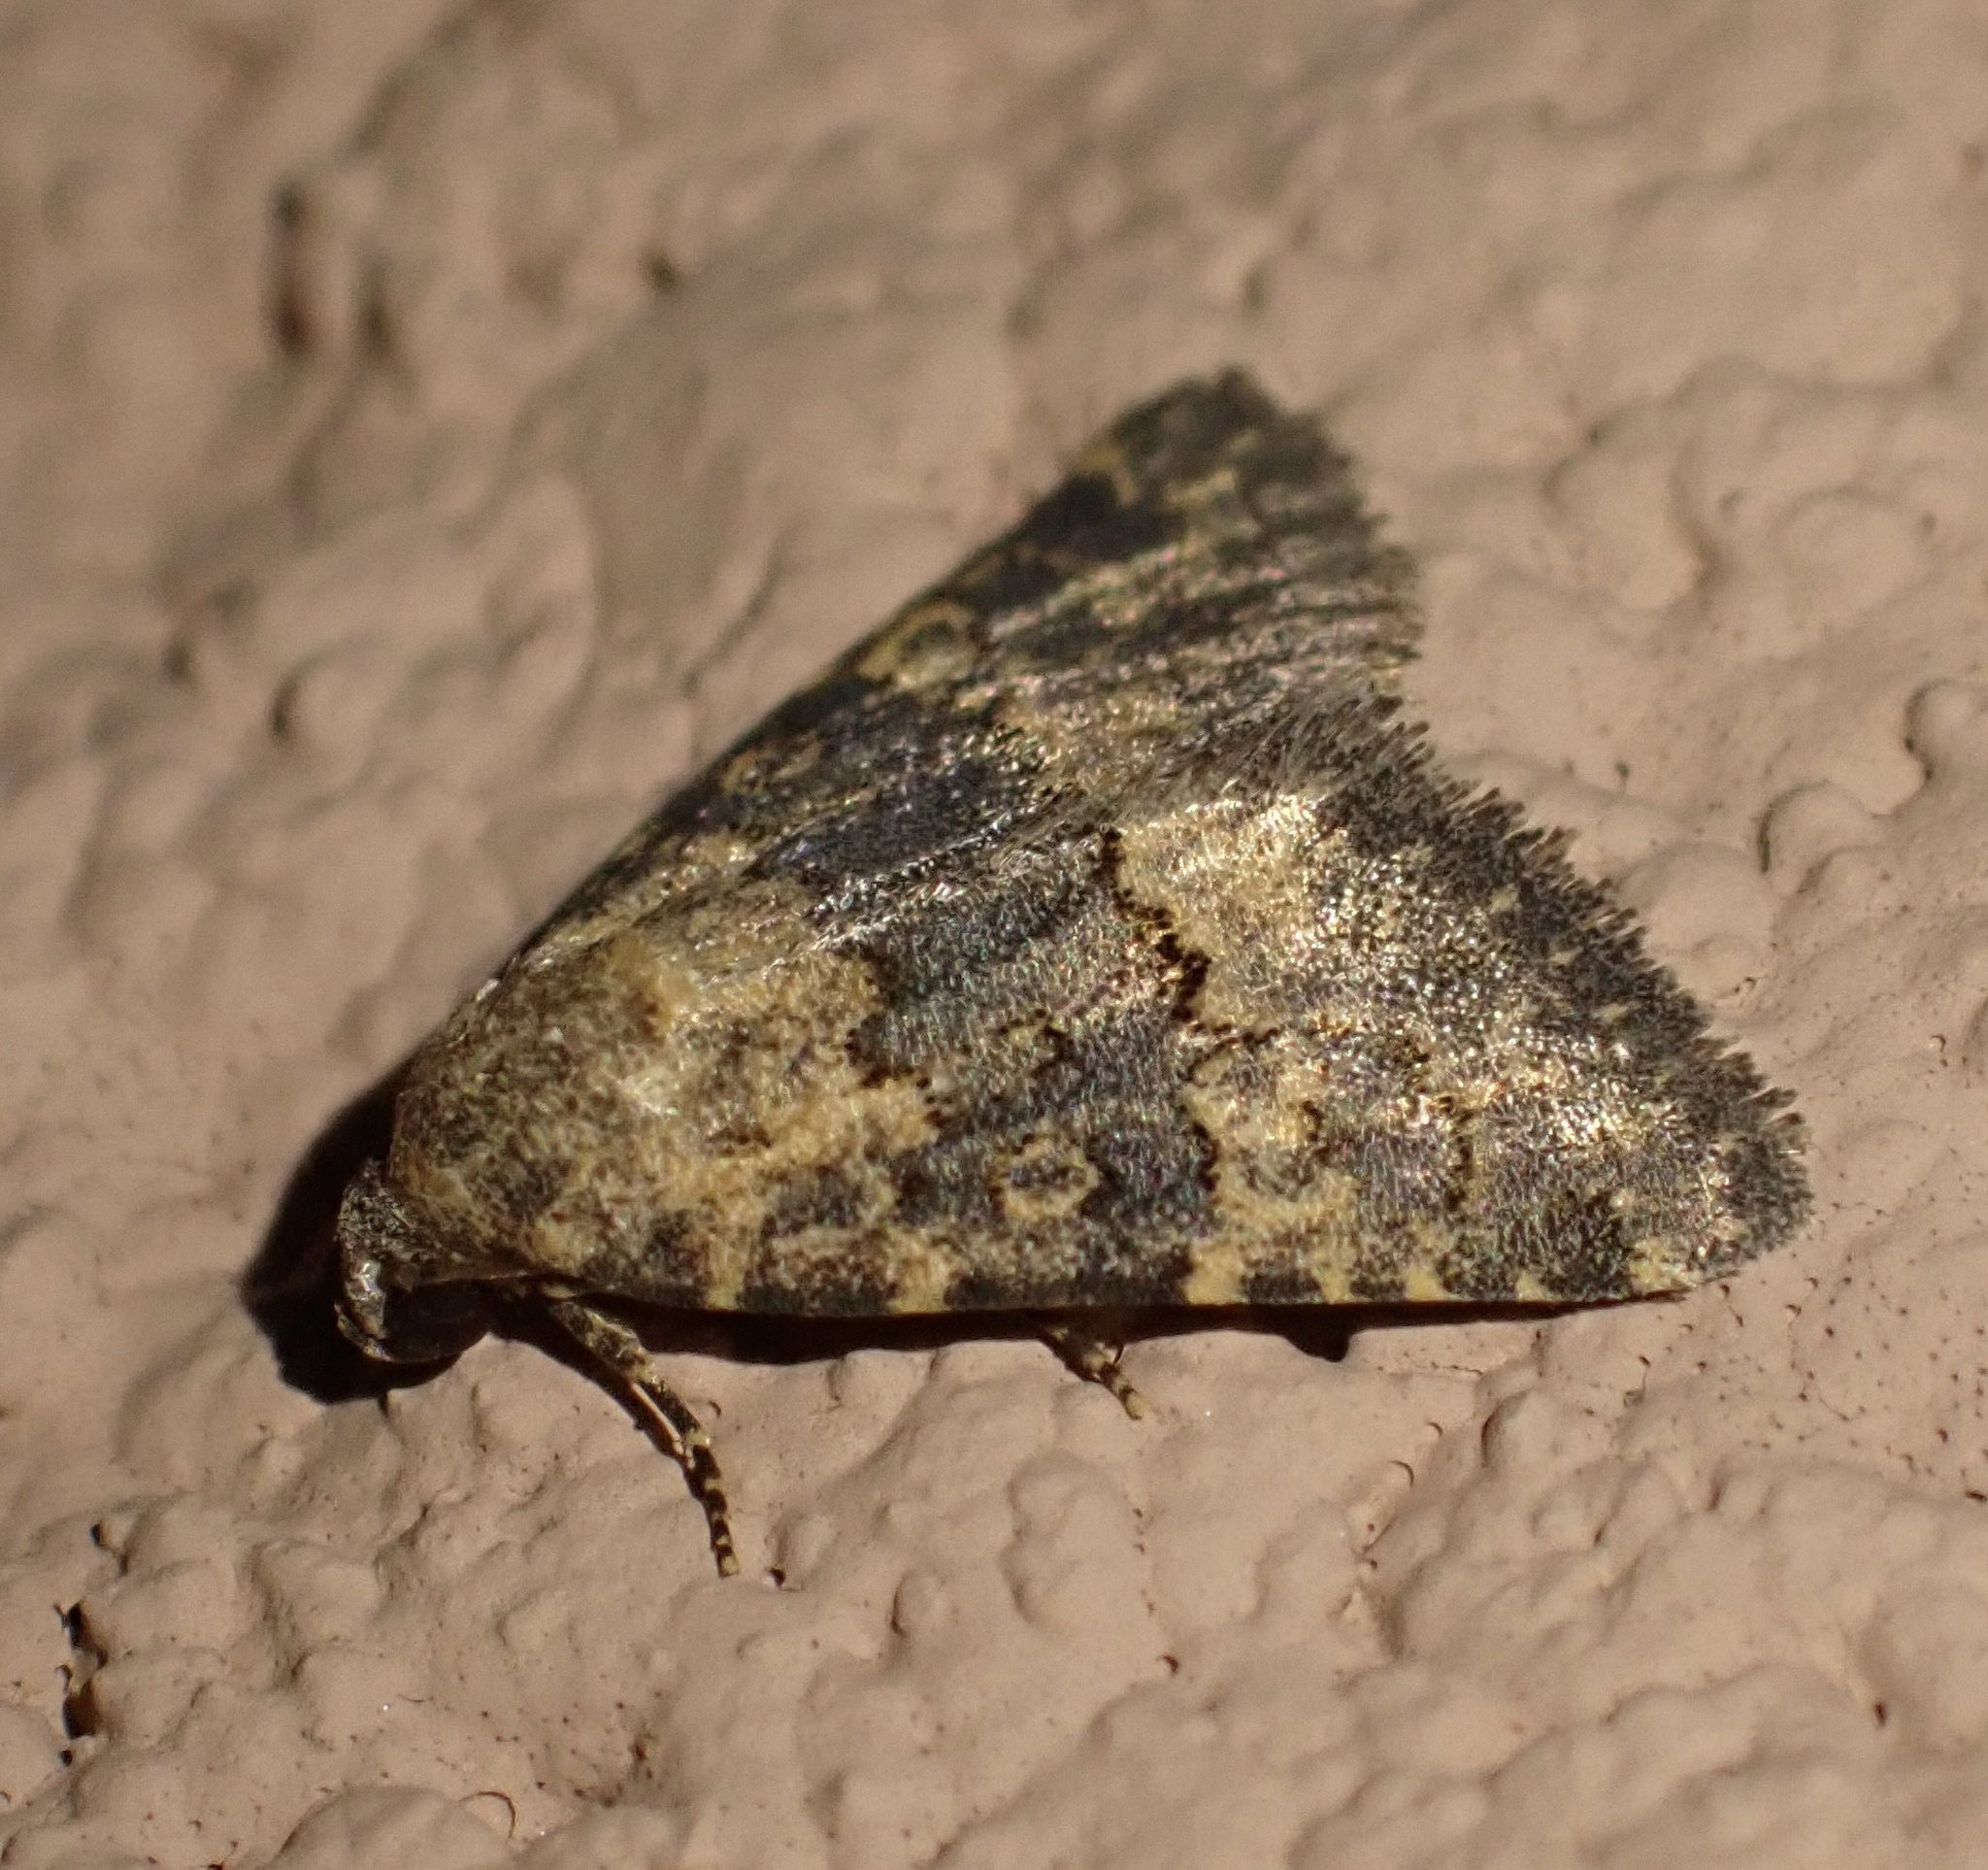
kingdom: Animalia
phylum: Arthropoda
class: Insecta
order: Lepidoptera
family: Noctuidae
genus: Duhemia
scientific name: Duhemia variegata
